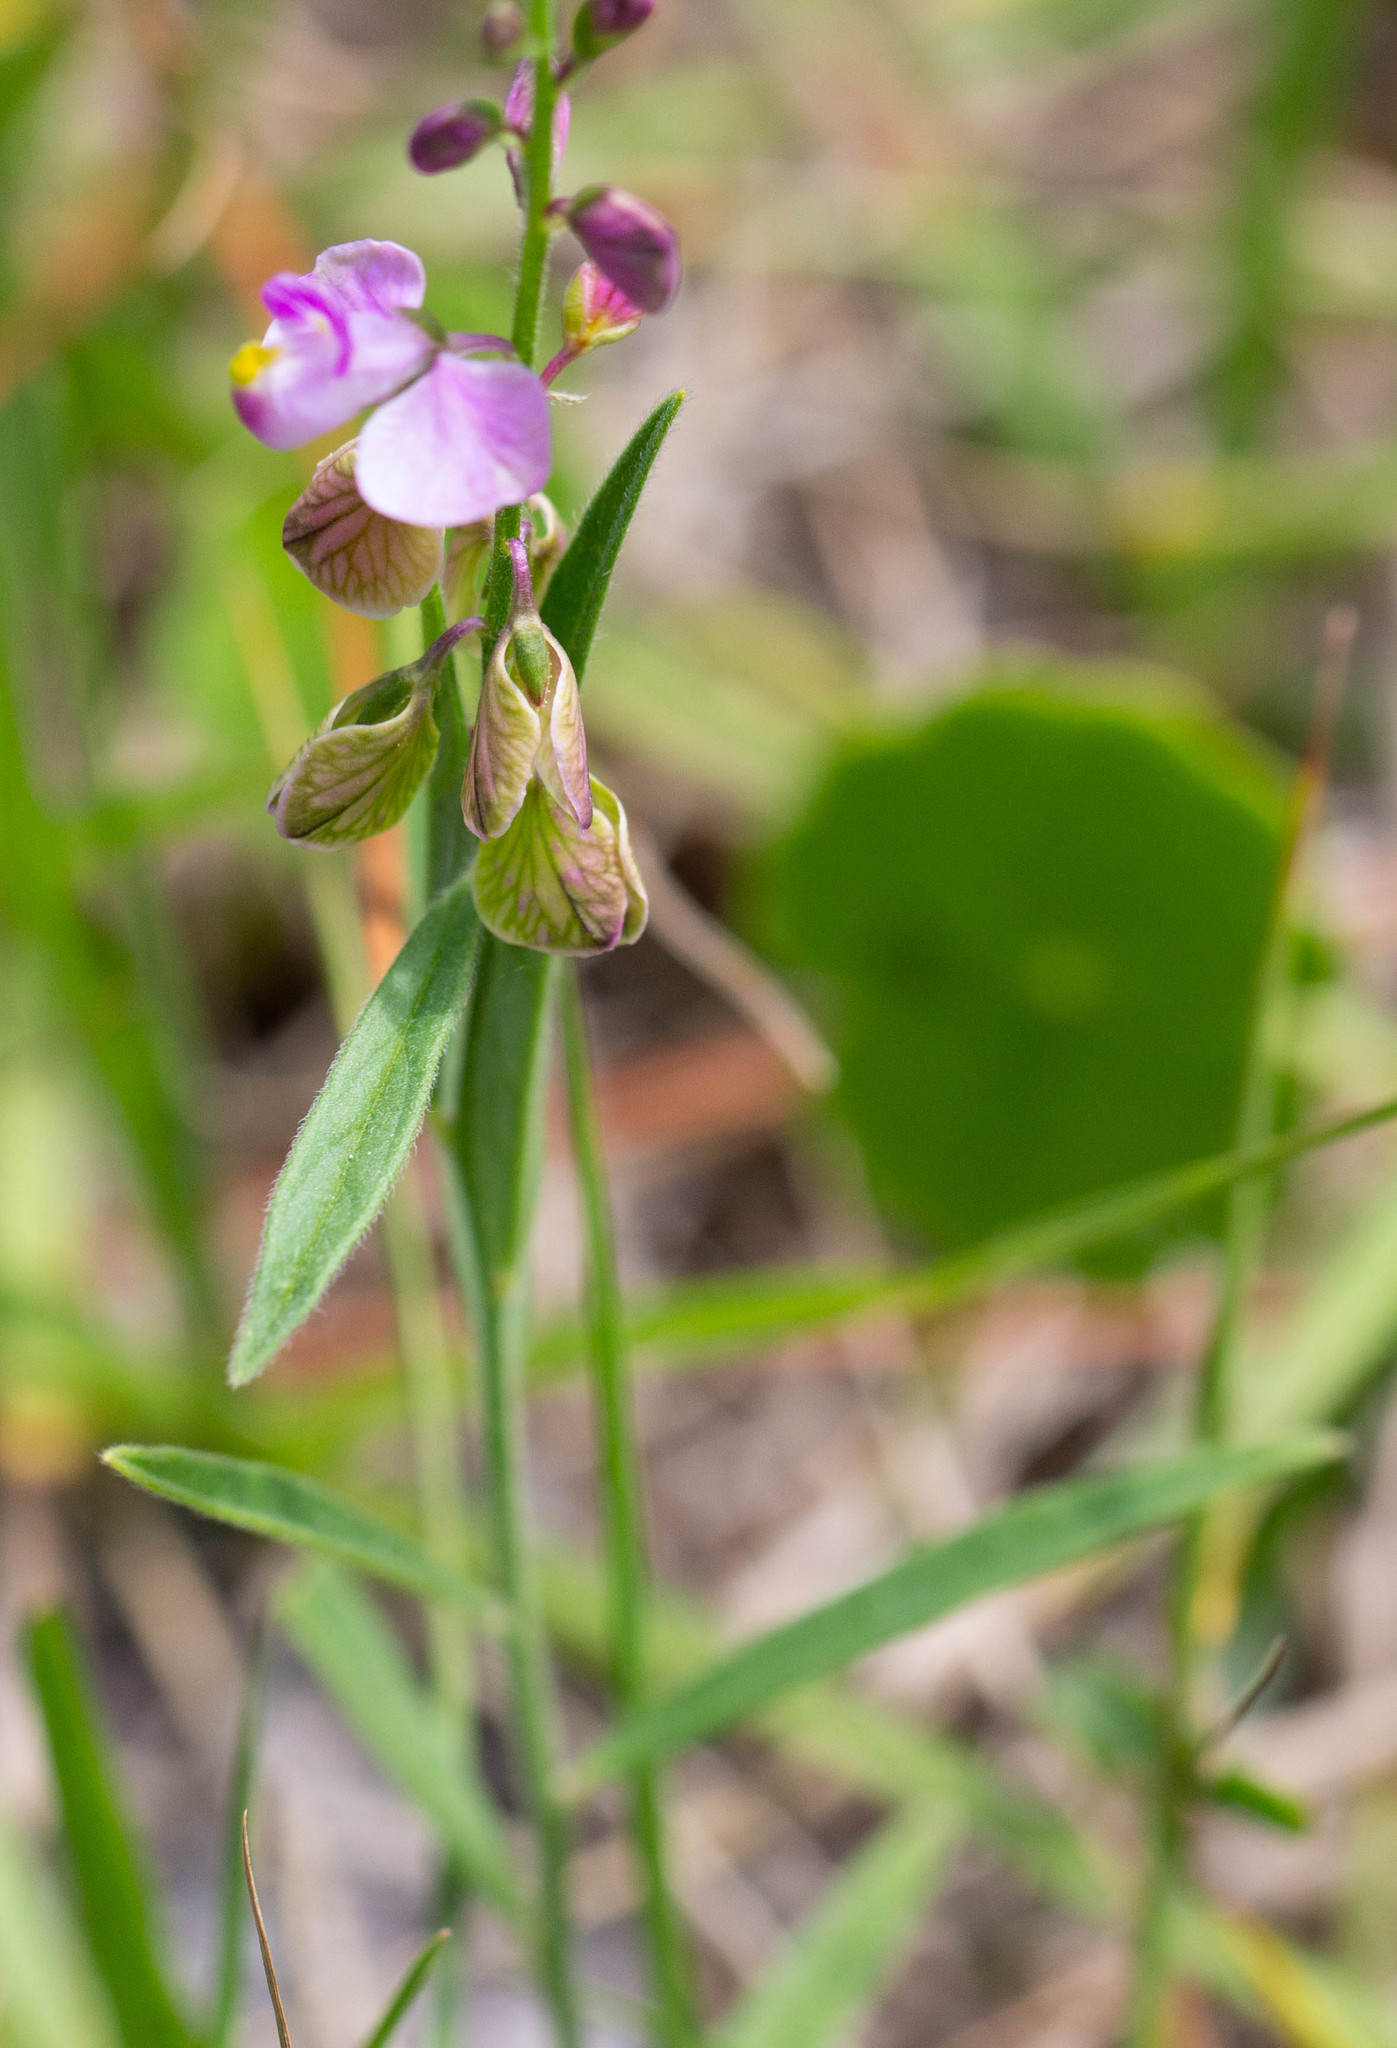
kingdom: Plantae
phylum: Tracheophyta
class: Magnoliopsida
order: Fabales
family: Polygalaceae
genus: Asemeia
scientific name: Asemeia grandiflora
